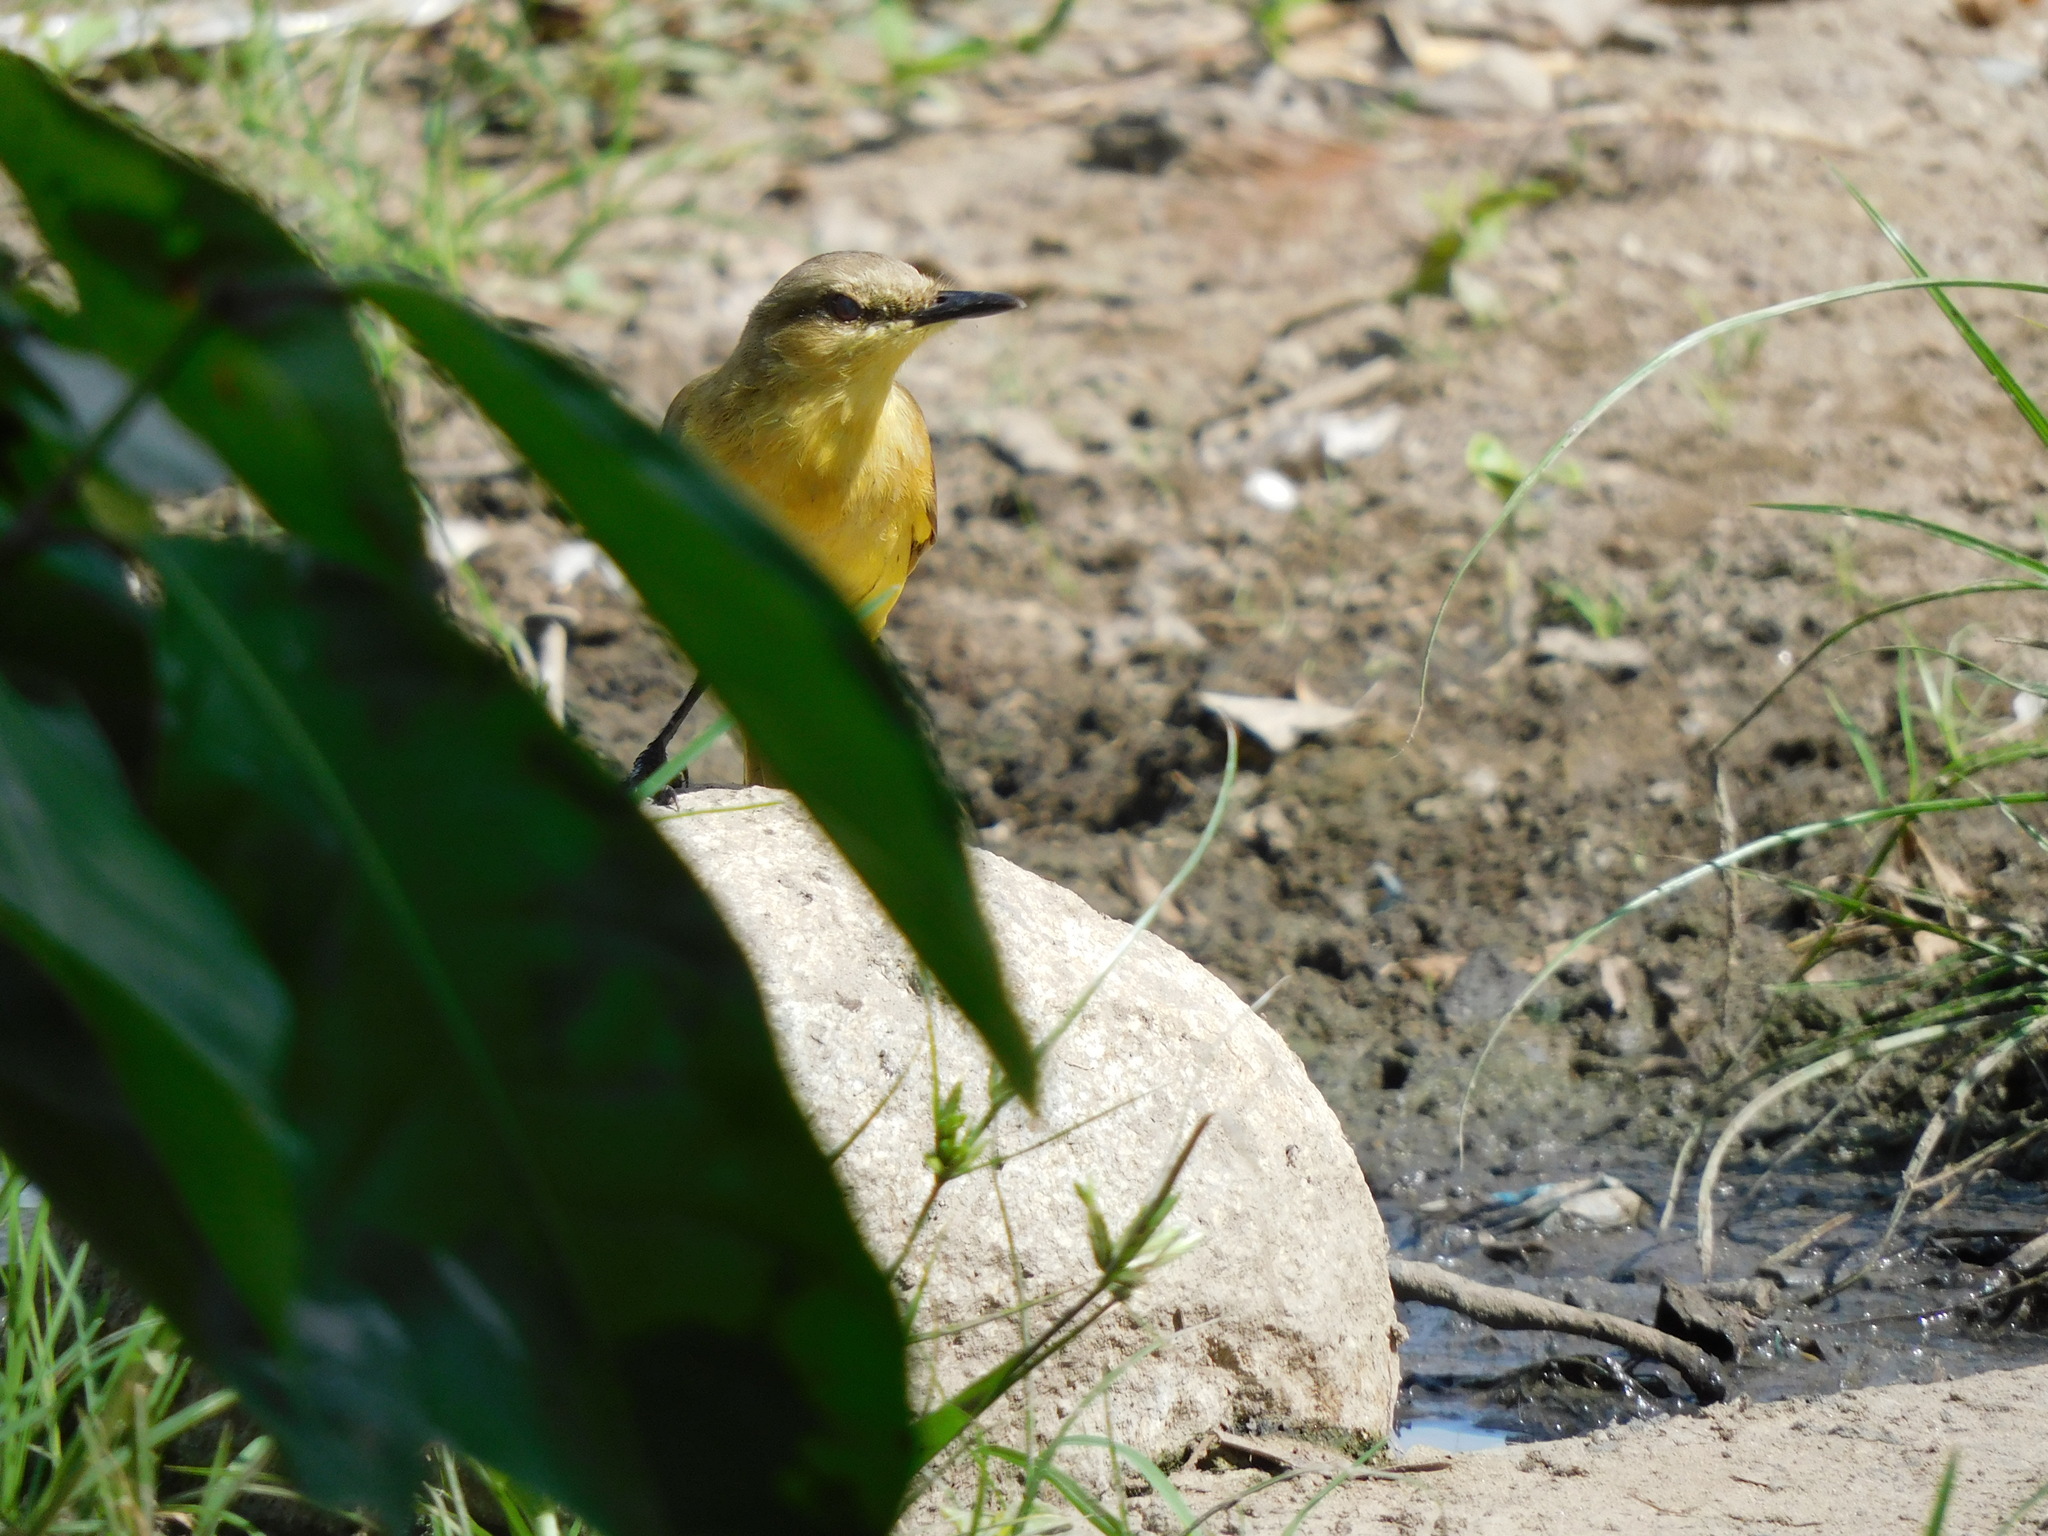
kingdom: Animalia
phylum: Chordata
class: Aves
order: Passeriformes
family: Tyrannidae
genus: Machetornis
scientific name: Machetornis rixosa
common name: Cattle tyrant
